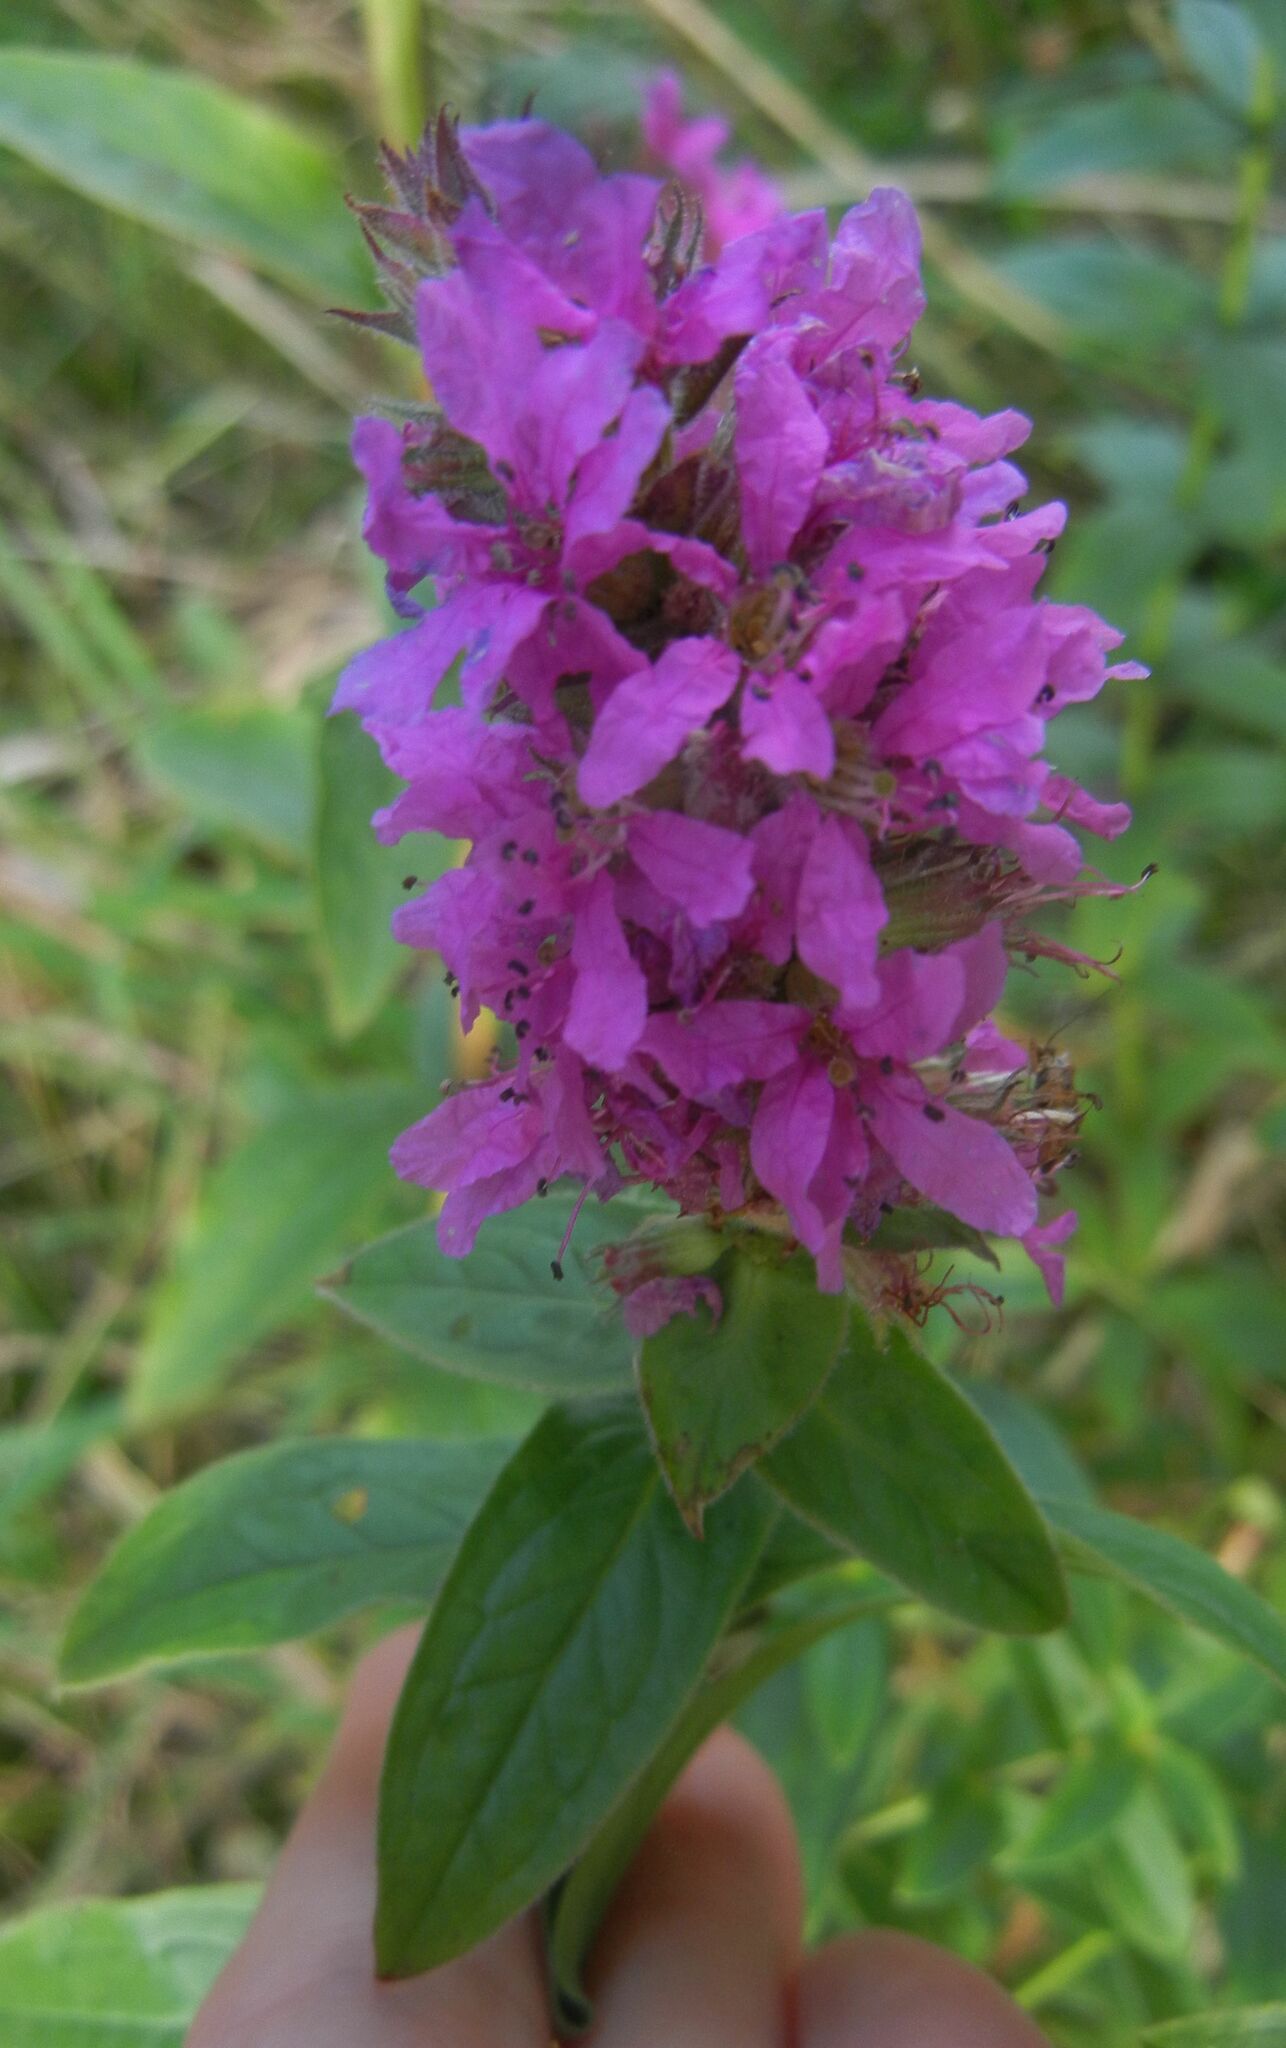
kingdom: Plantae
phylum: Tracheophyta
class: Magnoliopsida
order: Myrtales
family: Lythraceae
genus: Lythrum
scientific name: Lythrum salicaria
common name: Purple loosestrife
